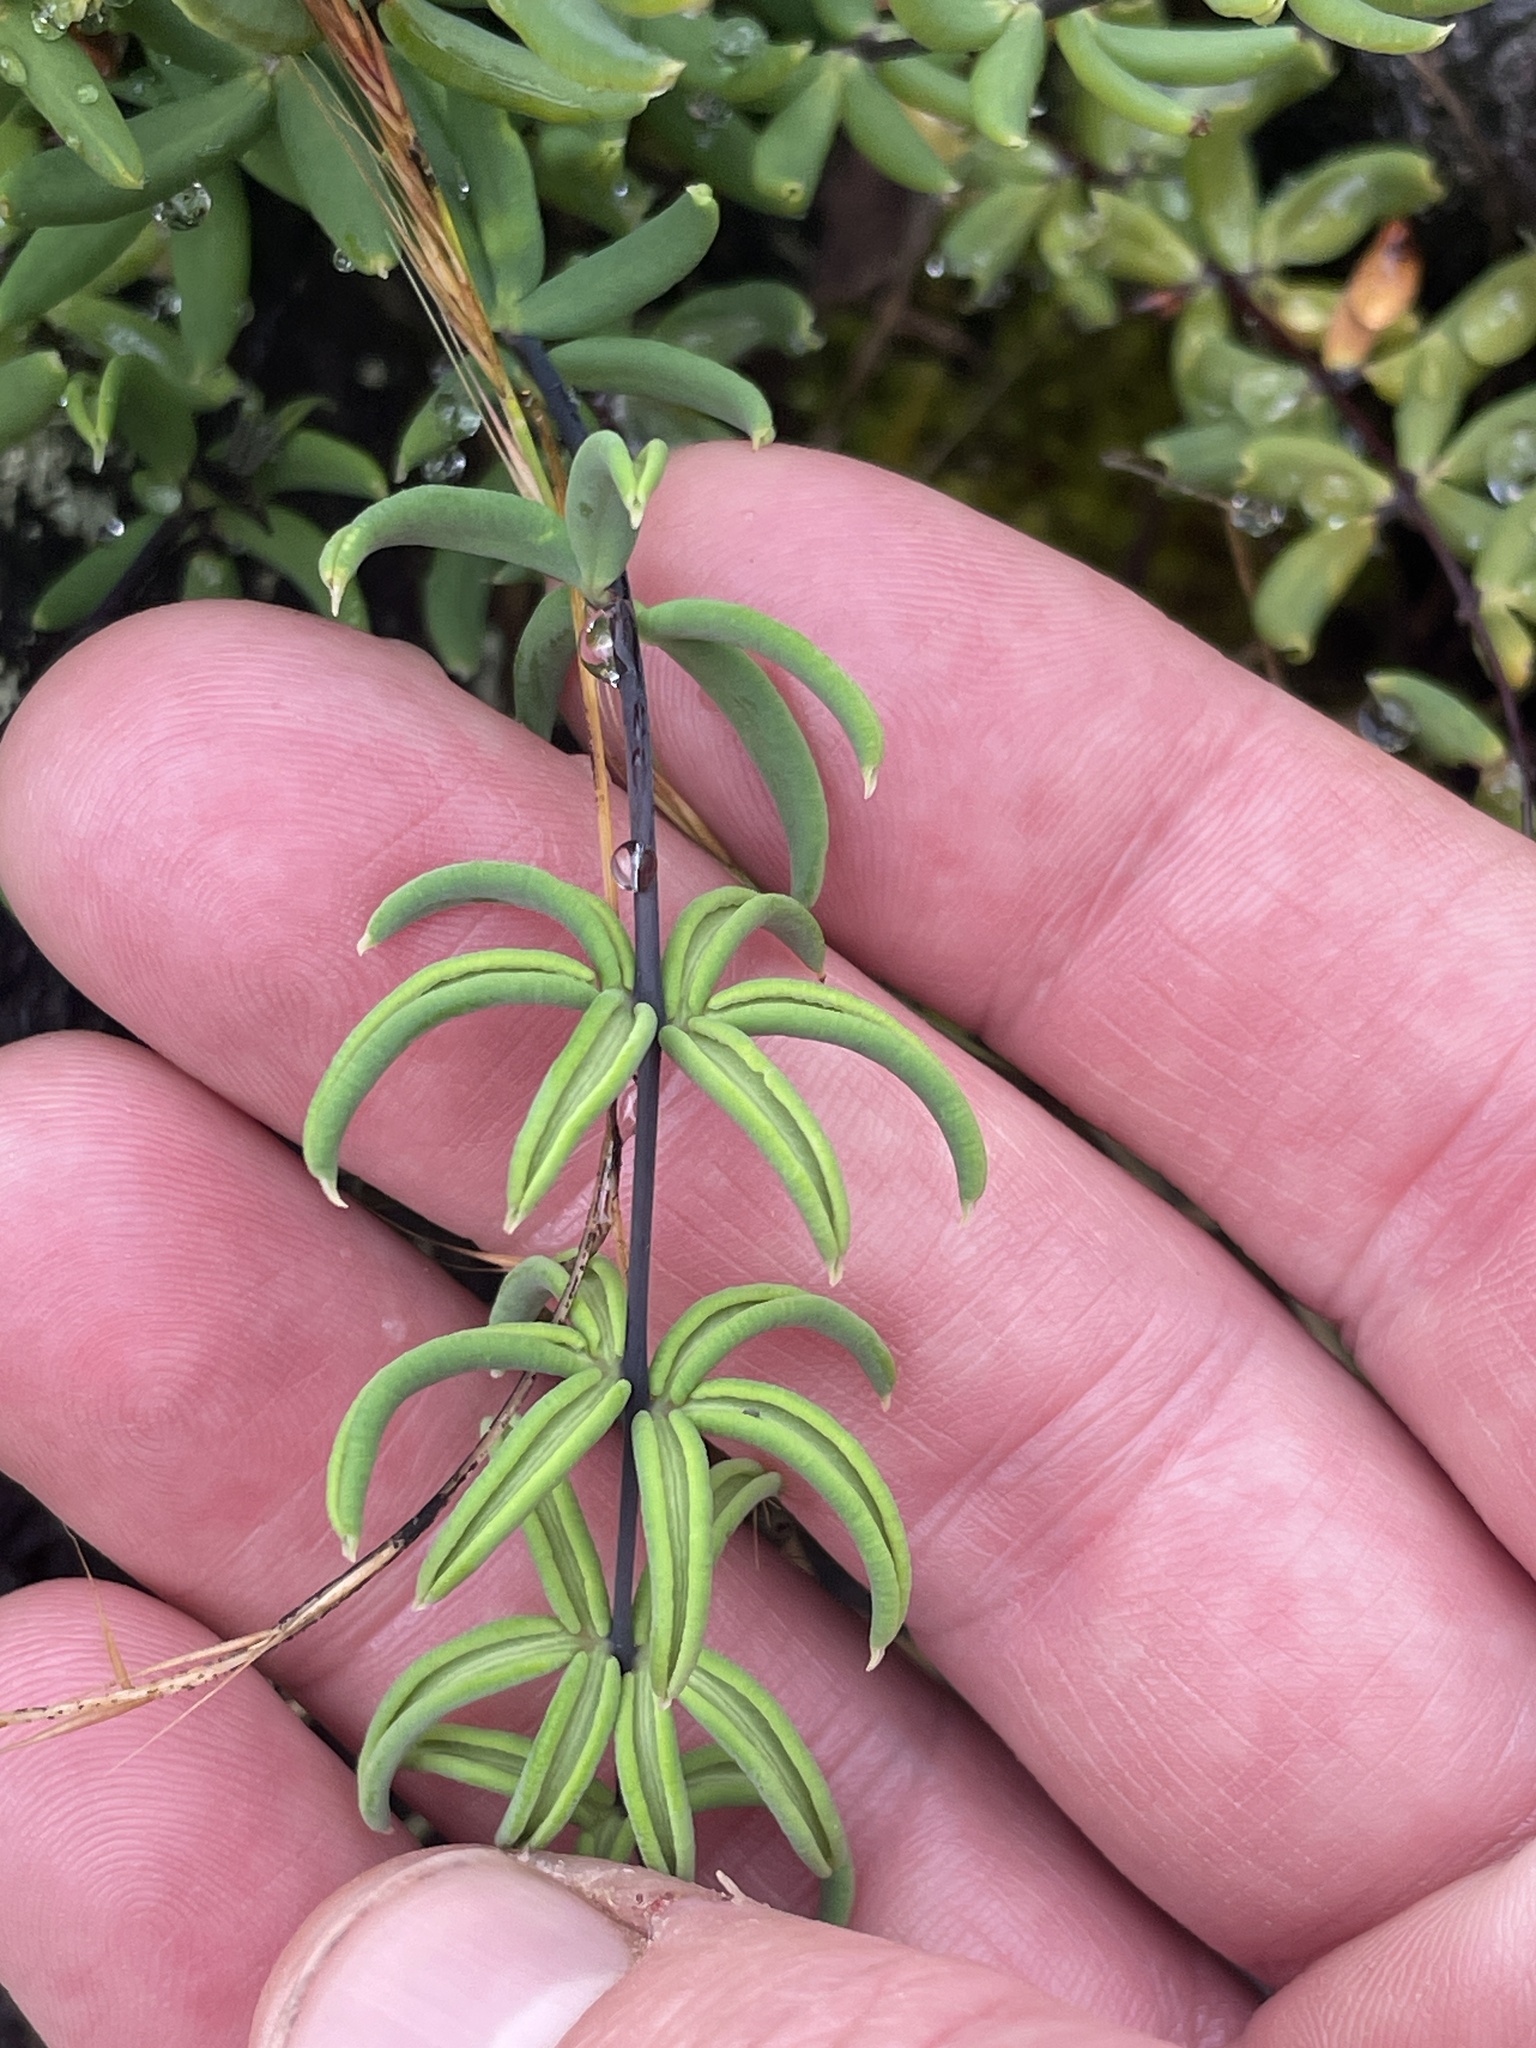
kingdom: Plantae
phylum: Tracheophyta
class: Polypodiopsida
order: Polypodiales
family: Pteridaceae
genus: Pellaea
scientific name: Pellaea ternifolia
